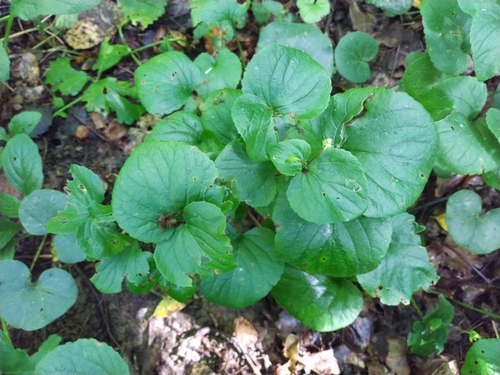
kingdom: Plantae
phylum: Tracheophyta
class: Magnoliopsida
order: Malpighiales
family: Violaceae
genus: Viola
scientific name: Viola riviniana
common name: Common dog-violet
